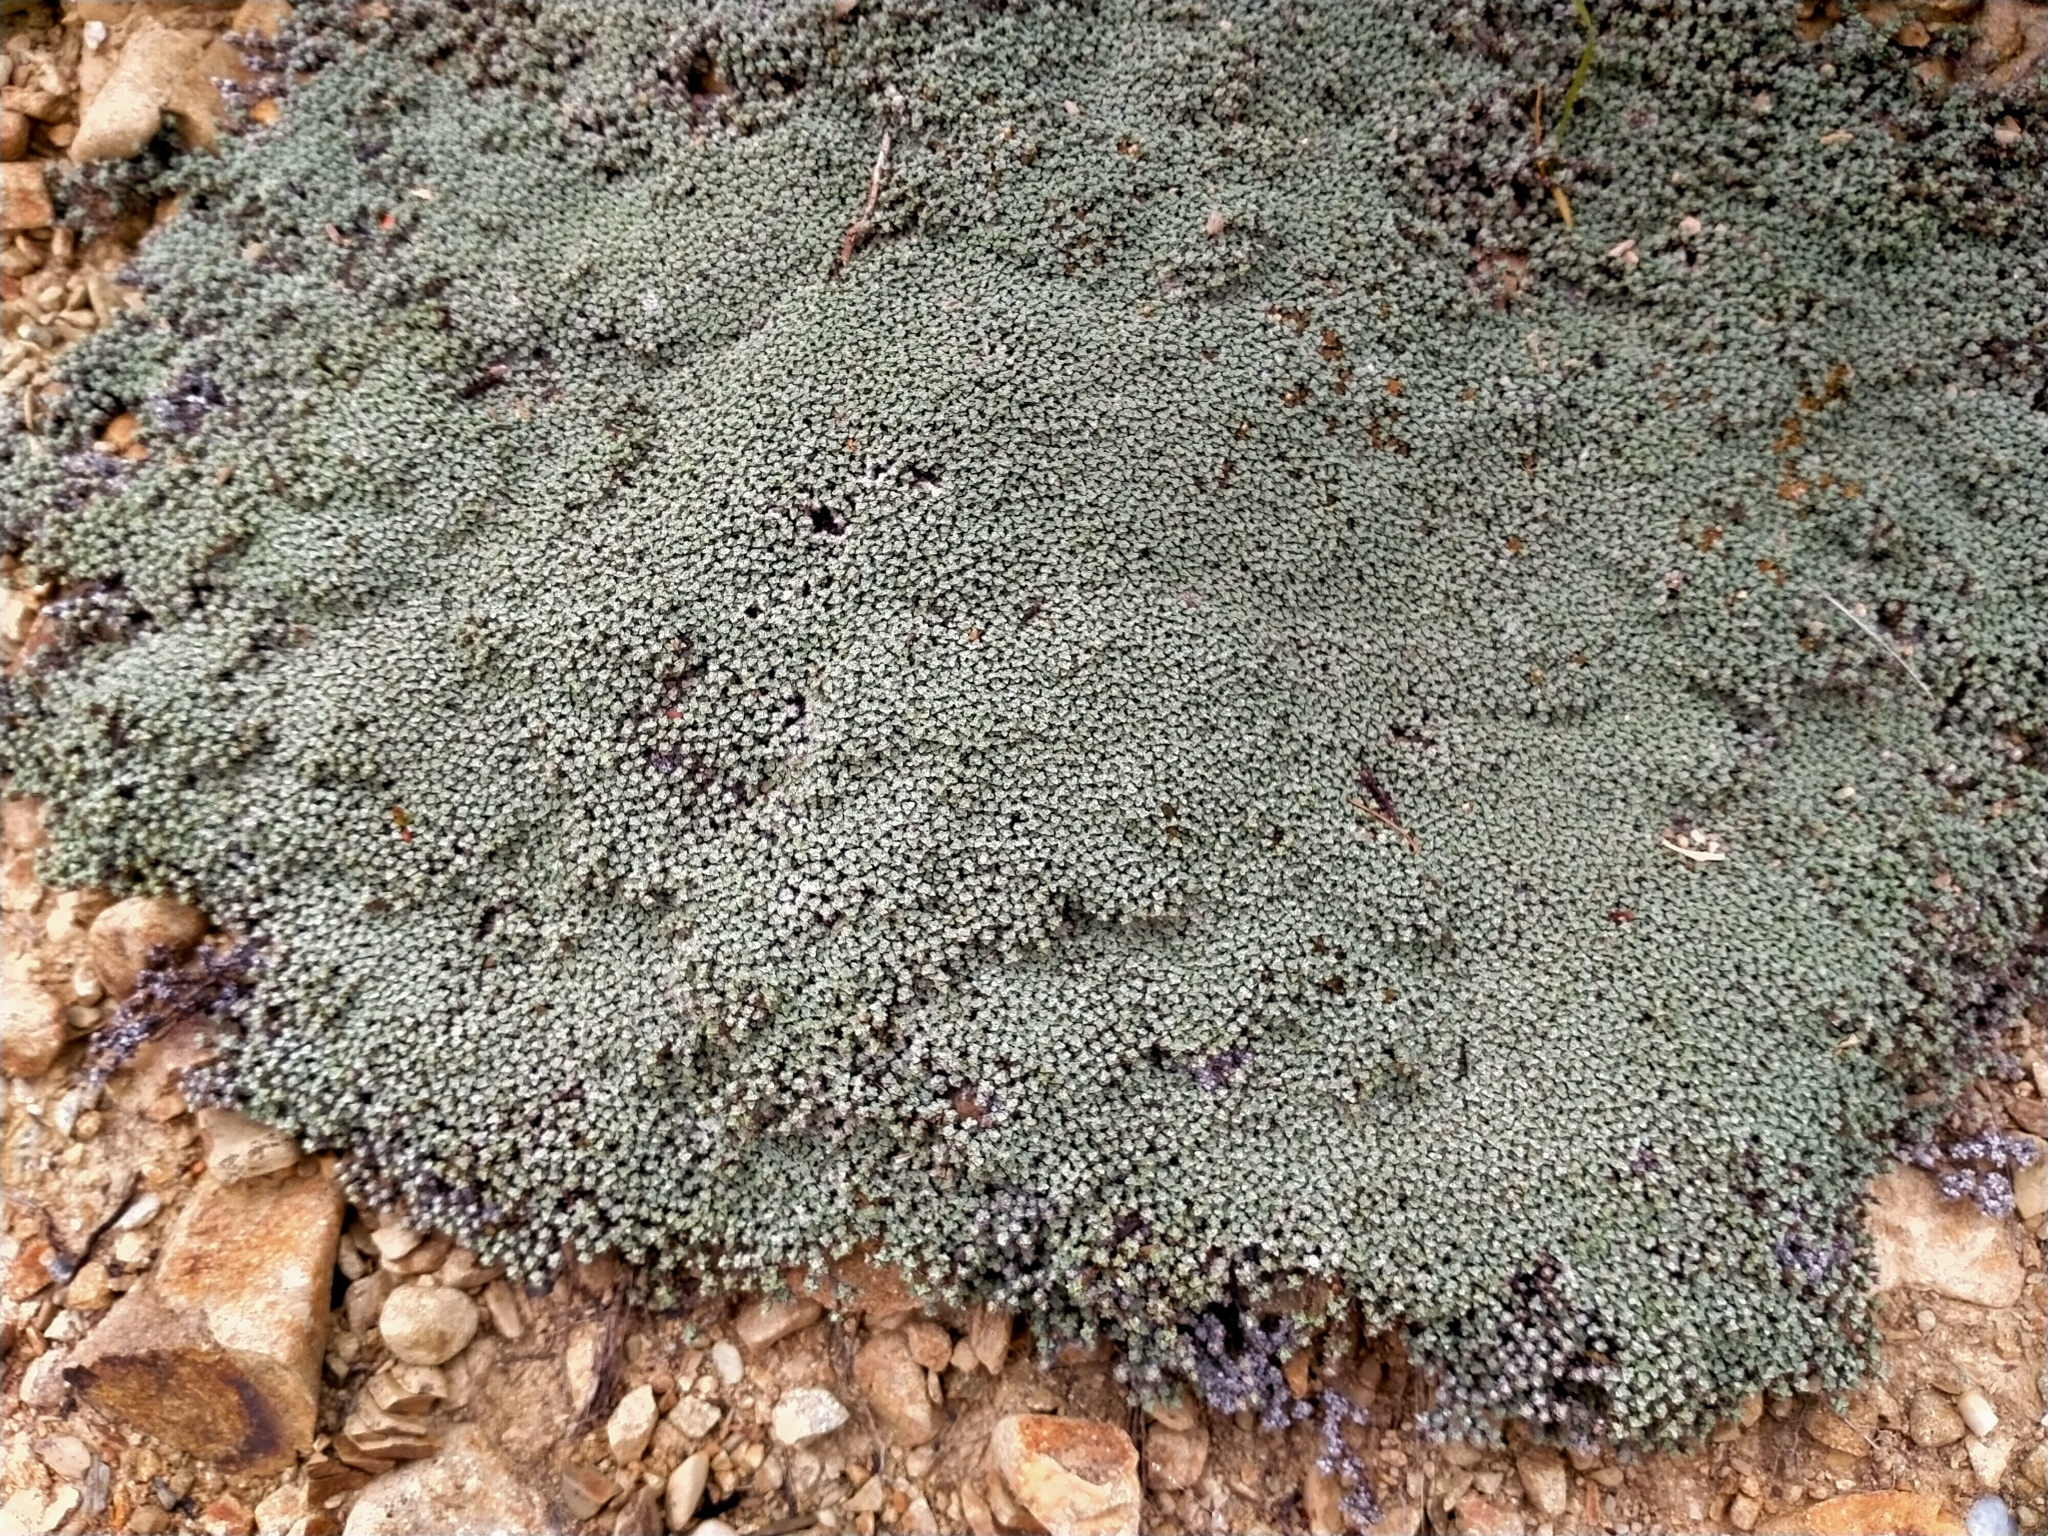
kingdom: Plantae
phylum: Tracheophyta
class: Magnoliopsida
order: Asterales
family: Asteraceae
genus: Raoulia
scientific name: Raoulia australis
